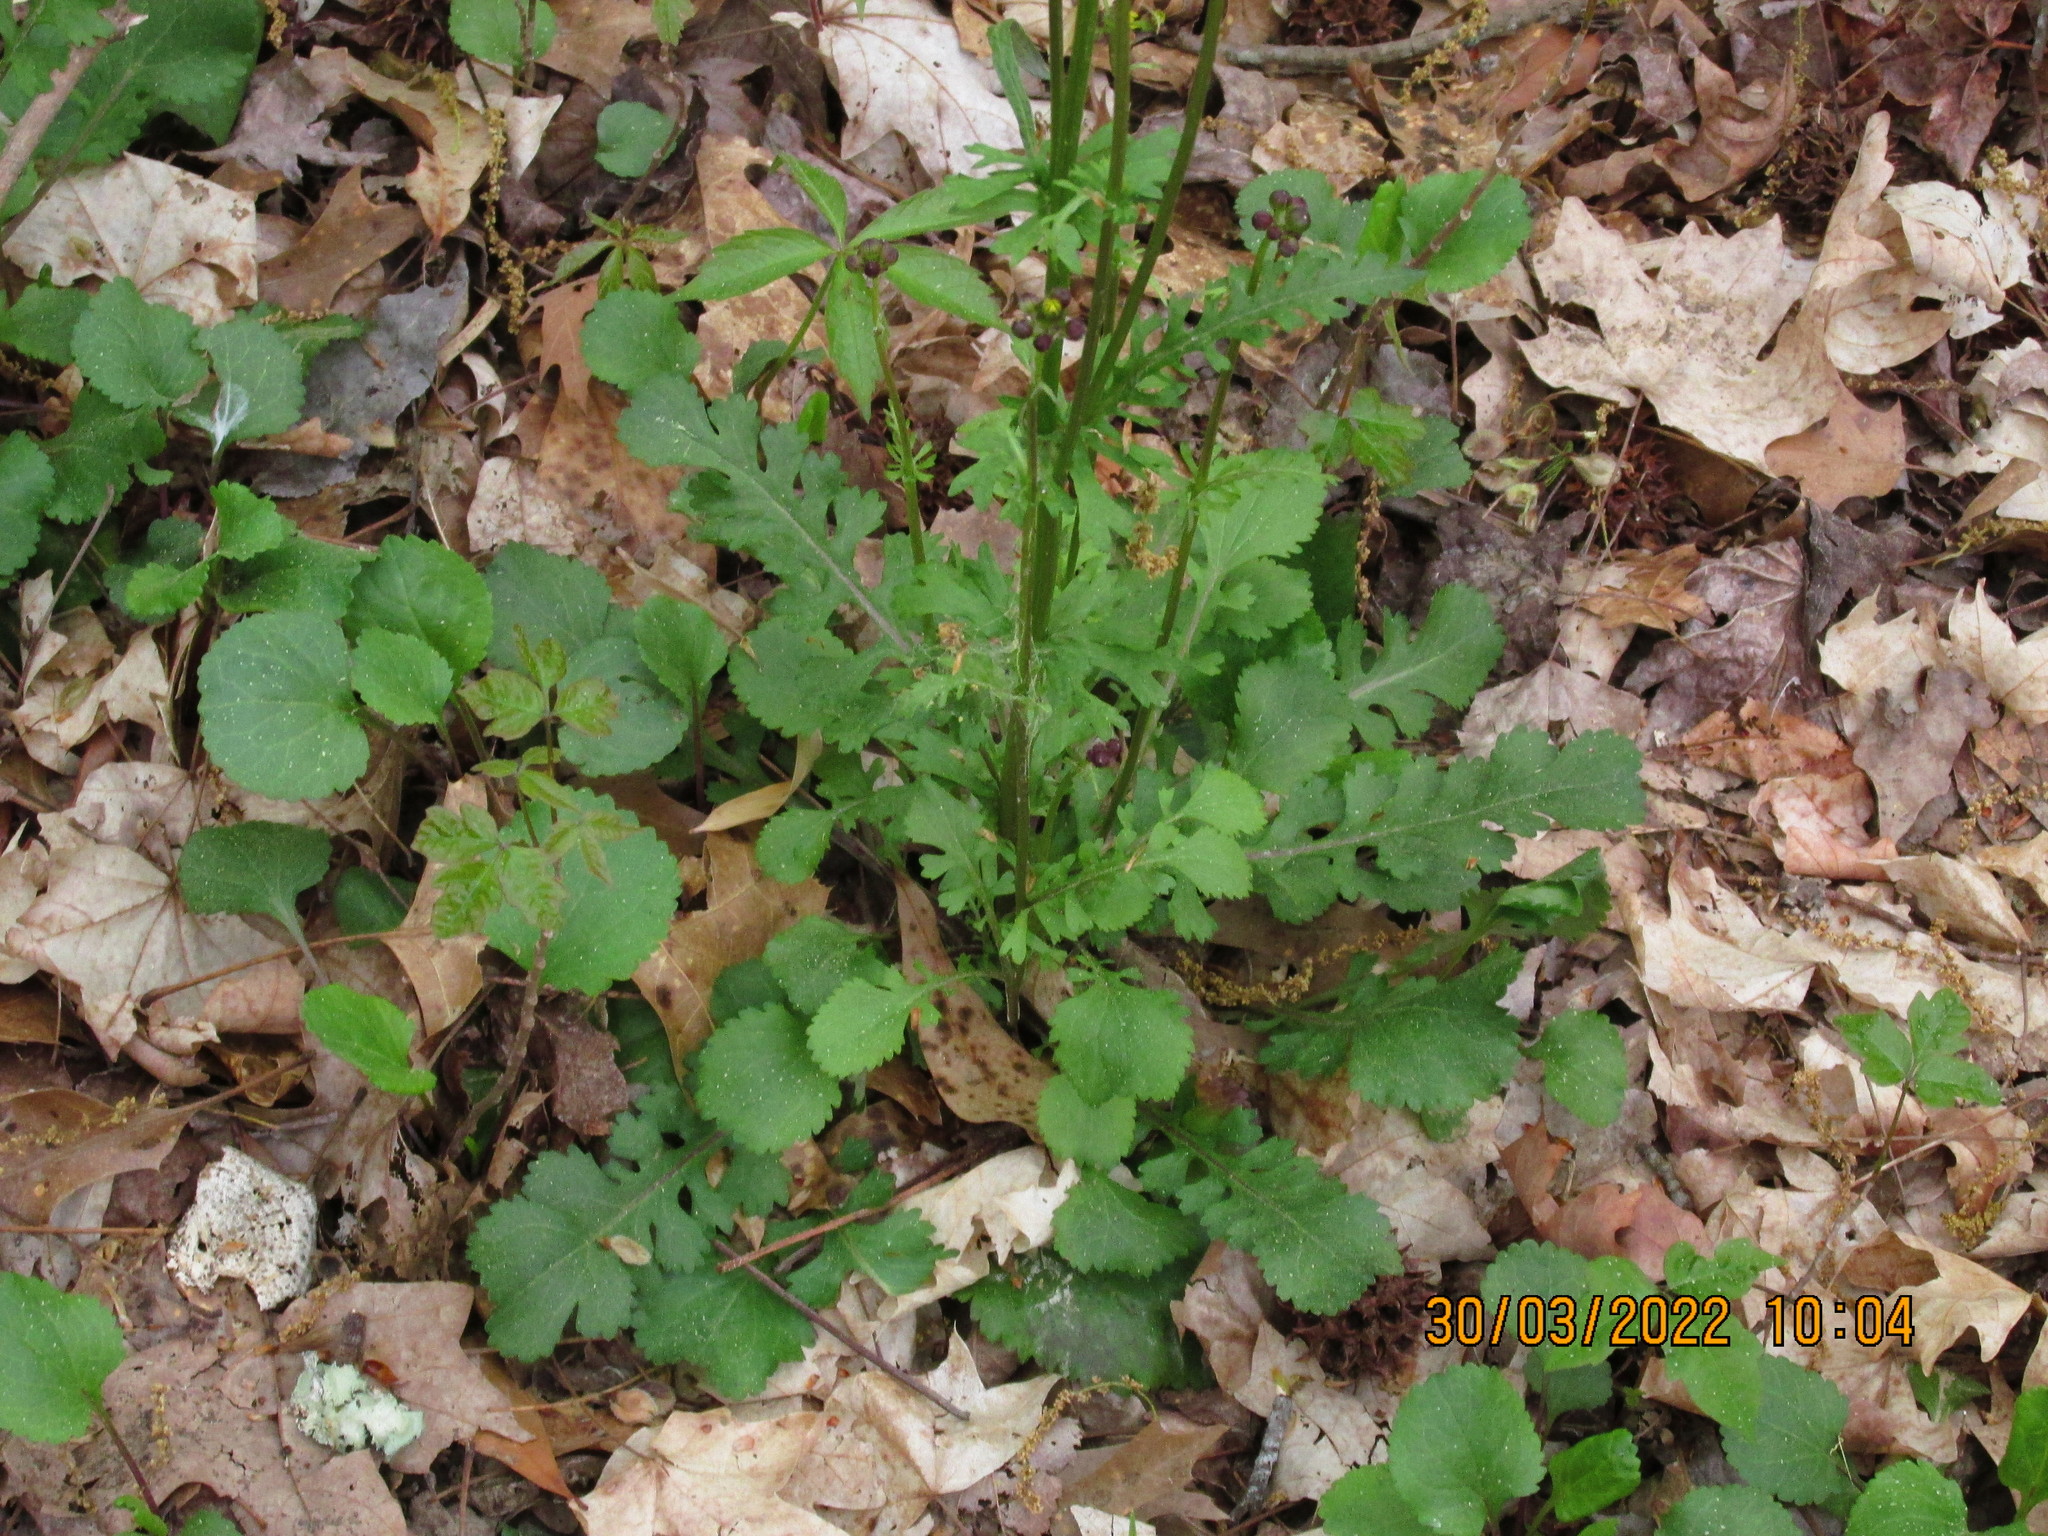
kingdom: Plantae
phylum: Tracheophyta
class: Magnoliopsida
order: Asterales
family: Asteraceae
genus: Packera
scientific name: Packera obovata
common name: Round-leaf ragwort
